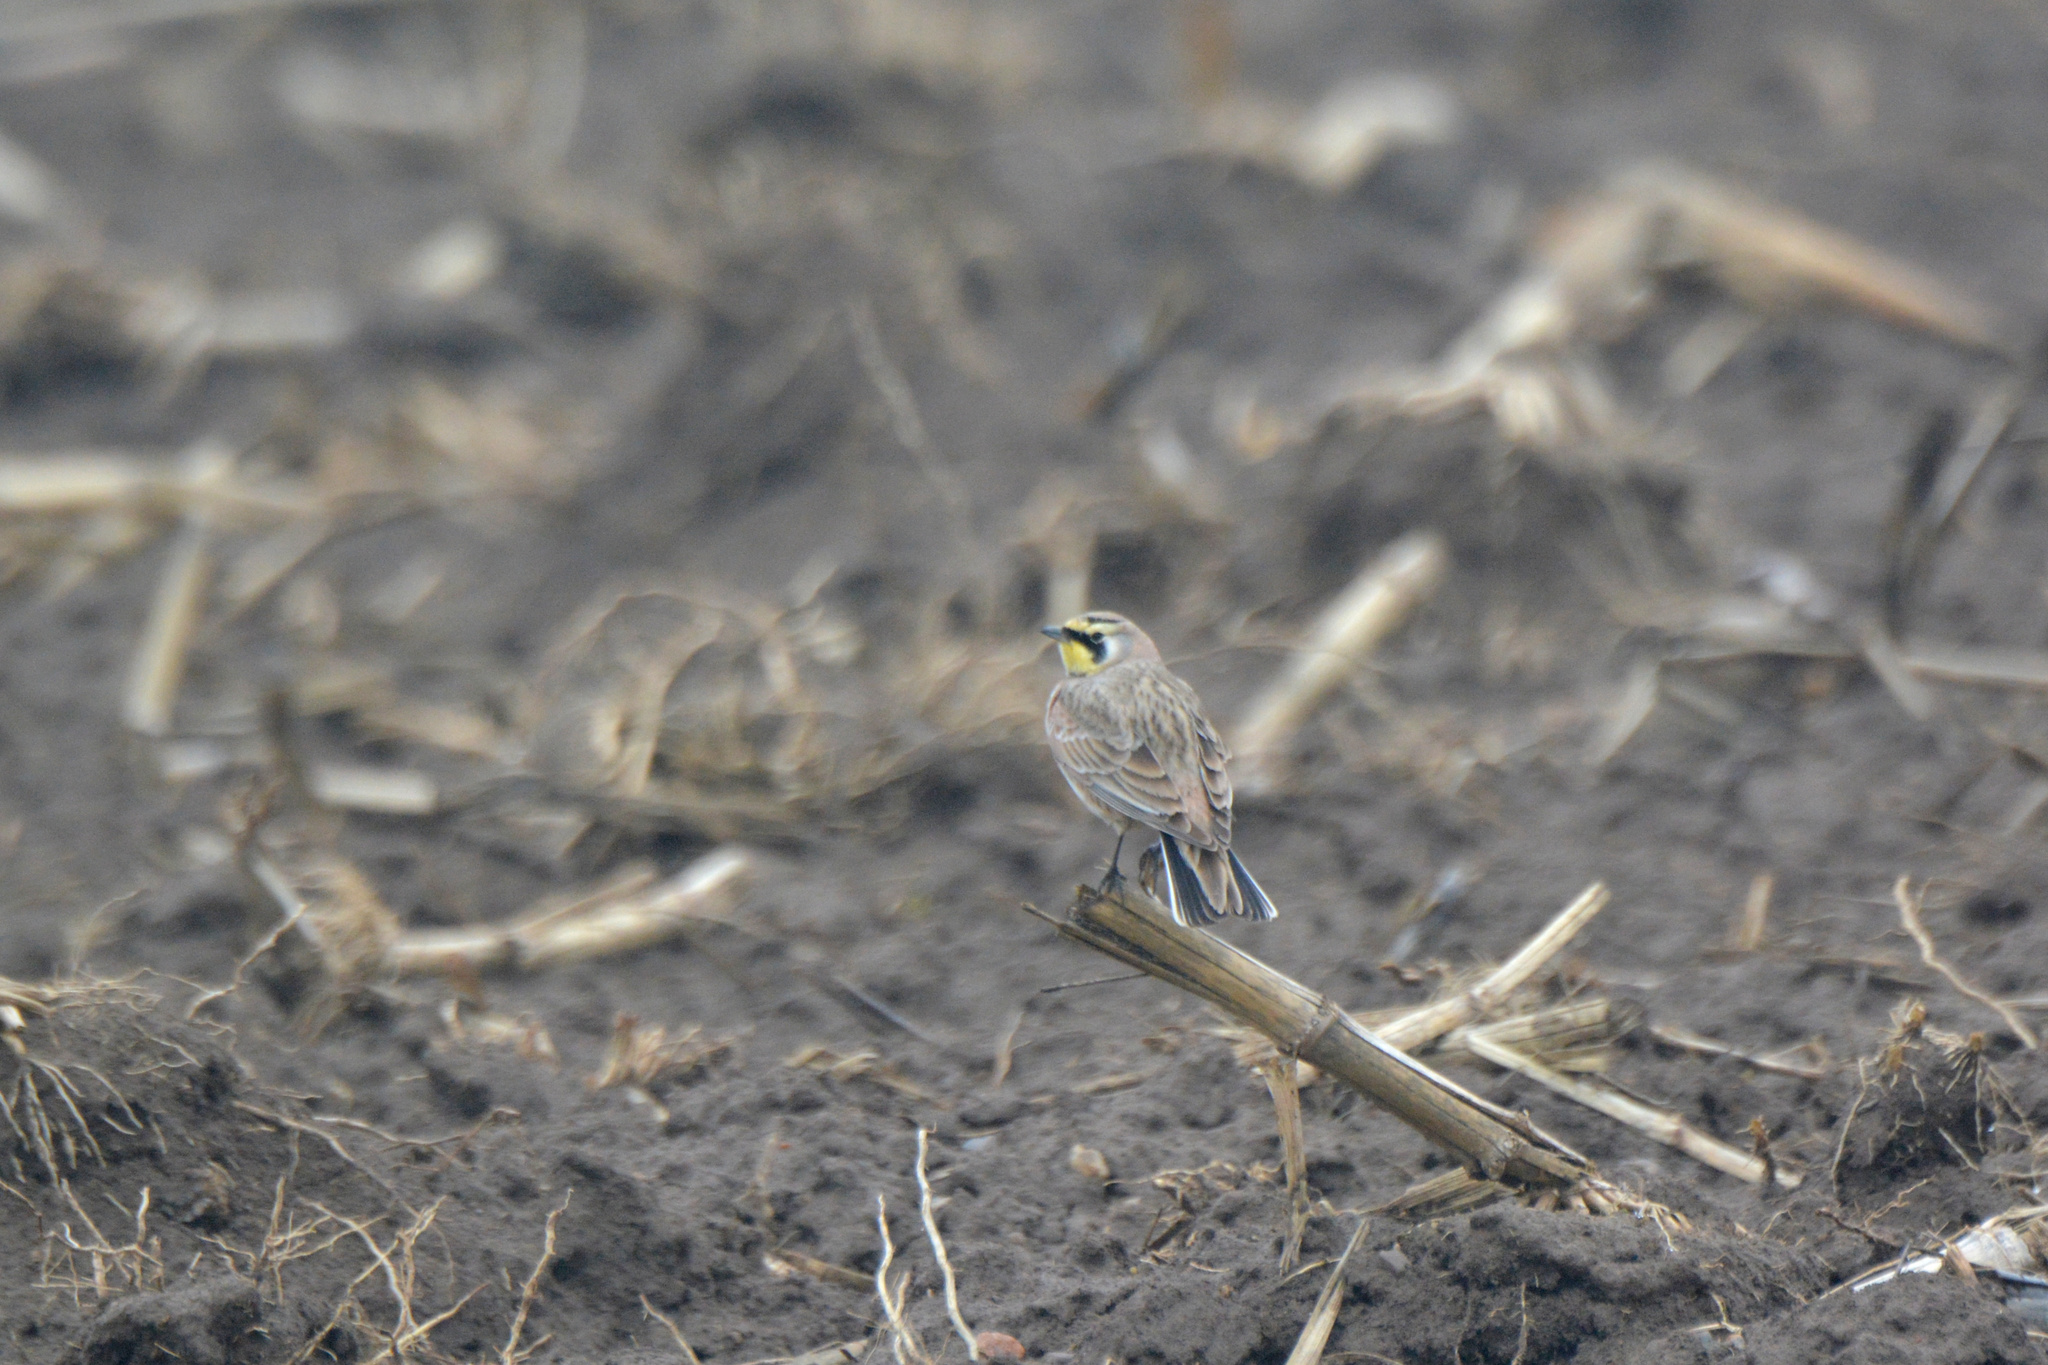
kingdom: Animalia
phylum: Chordata
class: Aves
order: Passeriformes
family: Alaudidae
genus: Eremophila
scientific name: Eremophila alpestris
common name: Horned lark
